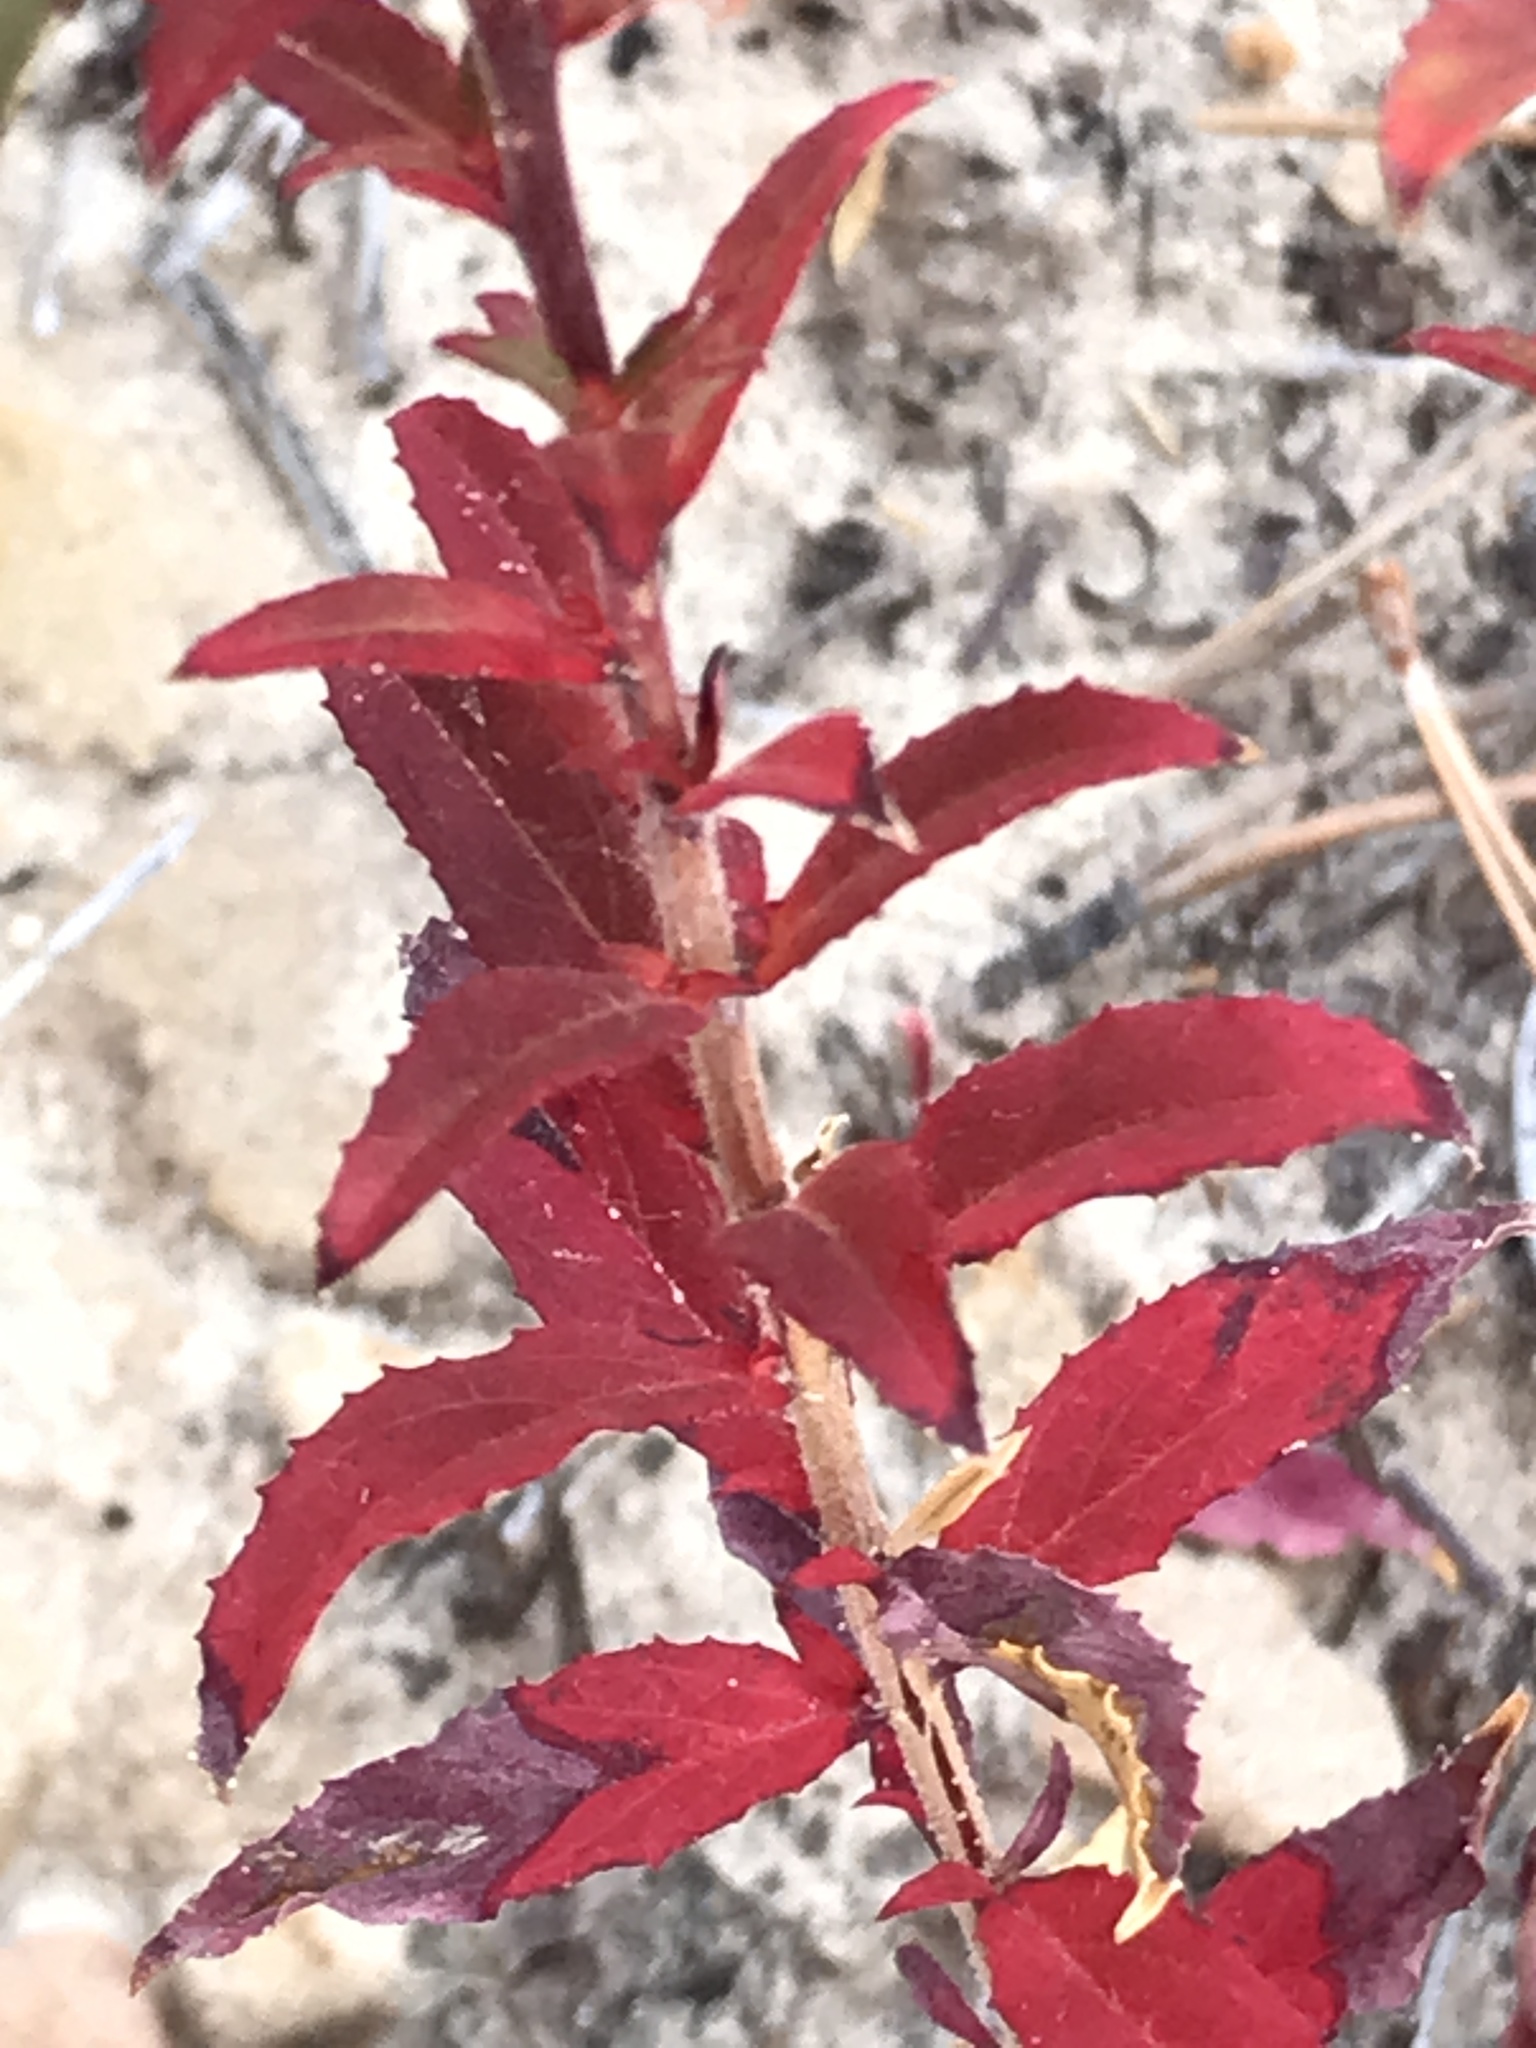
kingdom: Plantae
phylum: Tracheophyta
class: Magnoliopsida
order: Myrtales
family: Onagraceae
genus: Epilobium
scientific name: Epilobium canum
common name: California-fuchsia
